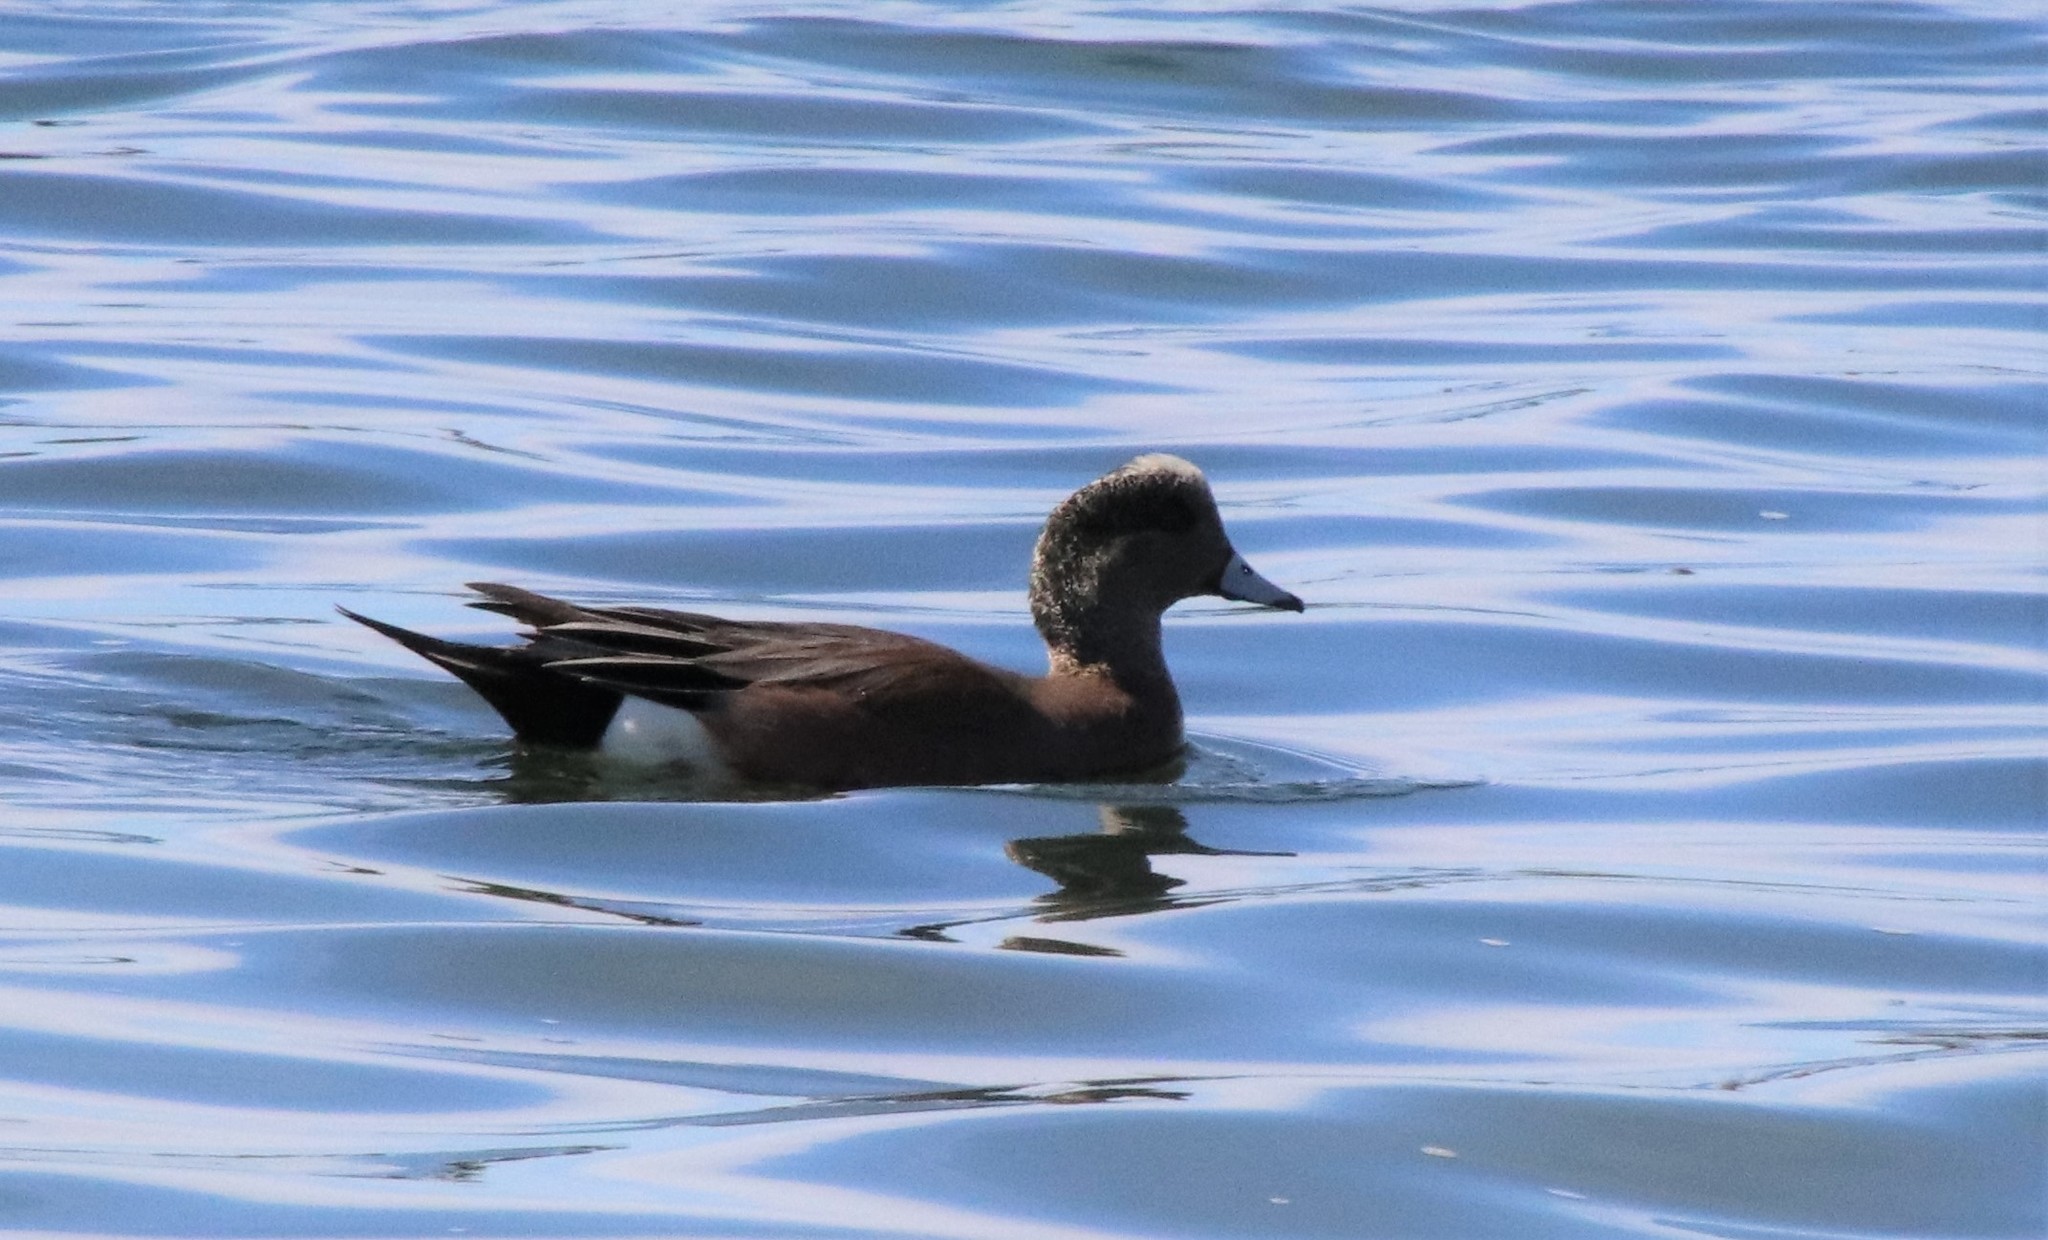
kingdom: Animalia
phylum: Chordata
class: Aves
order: Anseriformes
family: Anatidae
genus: Mareca
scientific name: Mareca americana
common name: American wigeon
